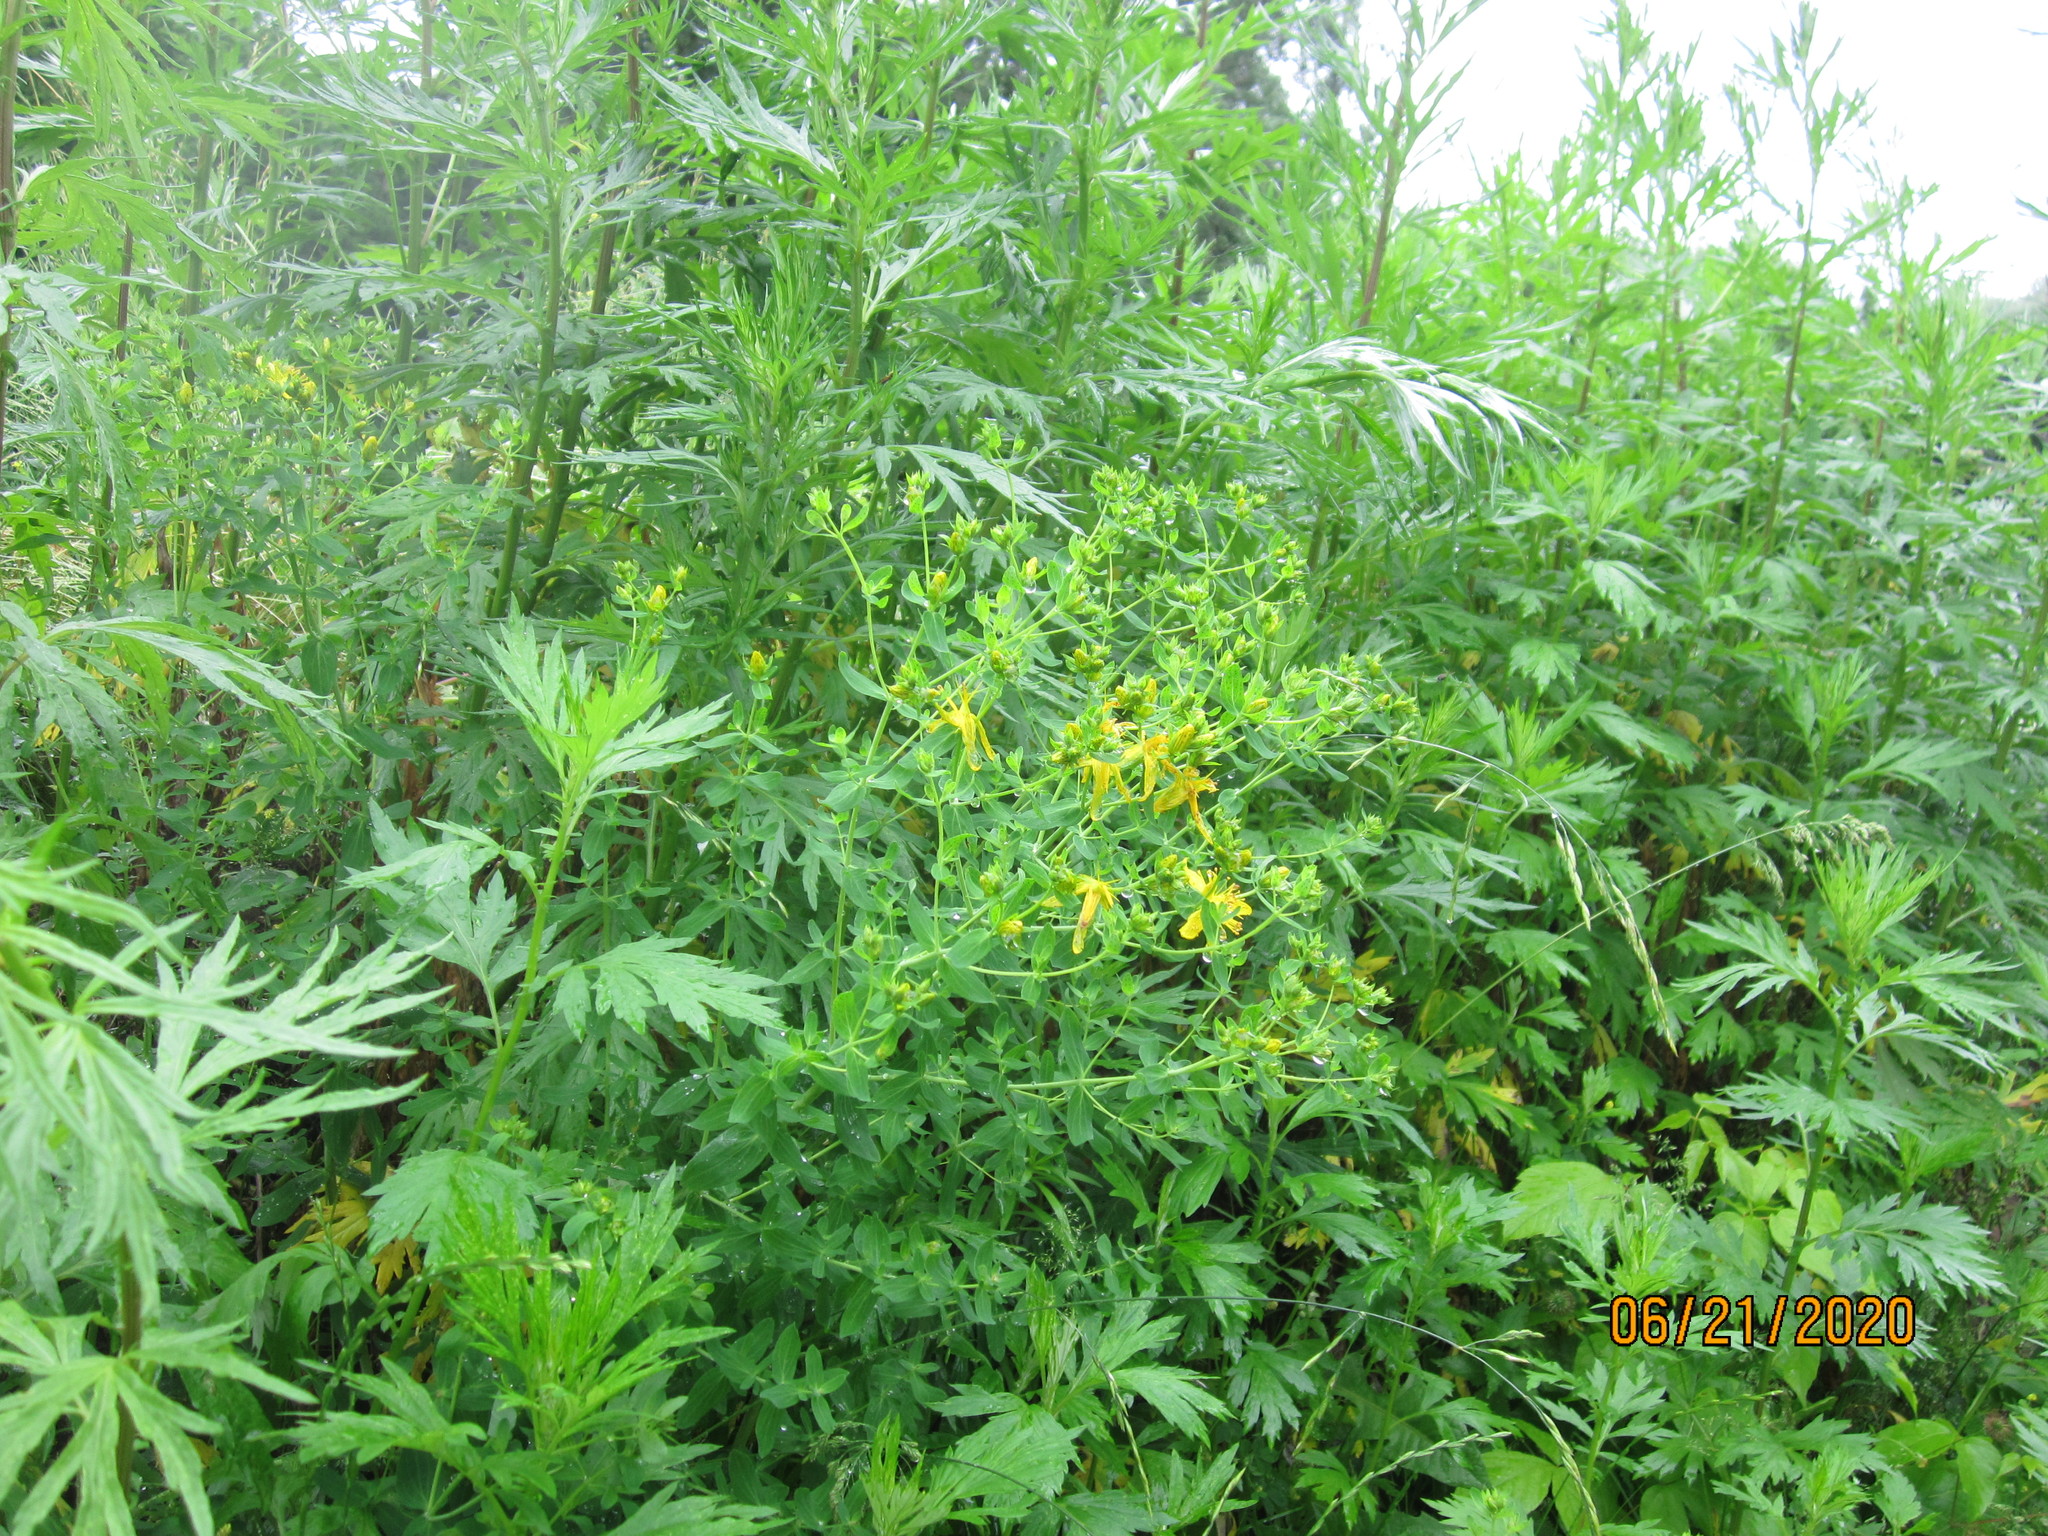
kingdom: Plantae
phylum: Tracheophyta
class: Magnoliopsida
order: Malpighiales
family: Hypericaceae
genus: Hypericum
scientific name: Hypericum perforatum
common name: Common st. johnswort
